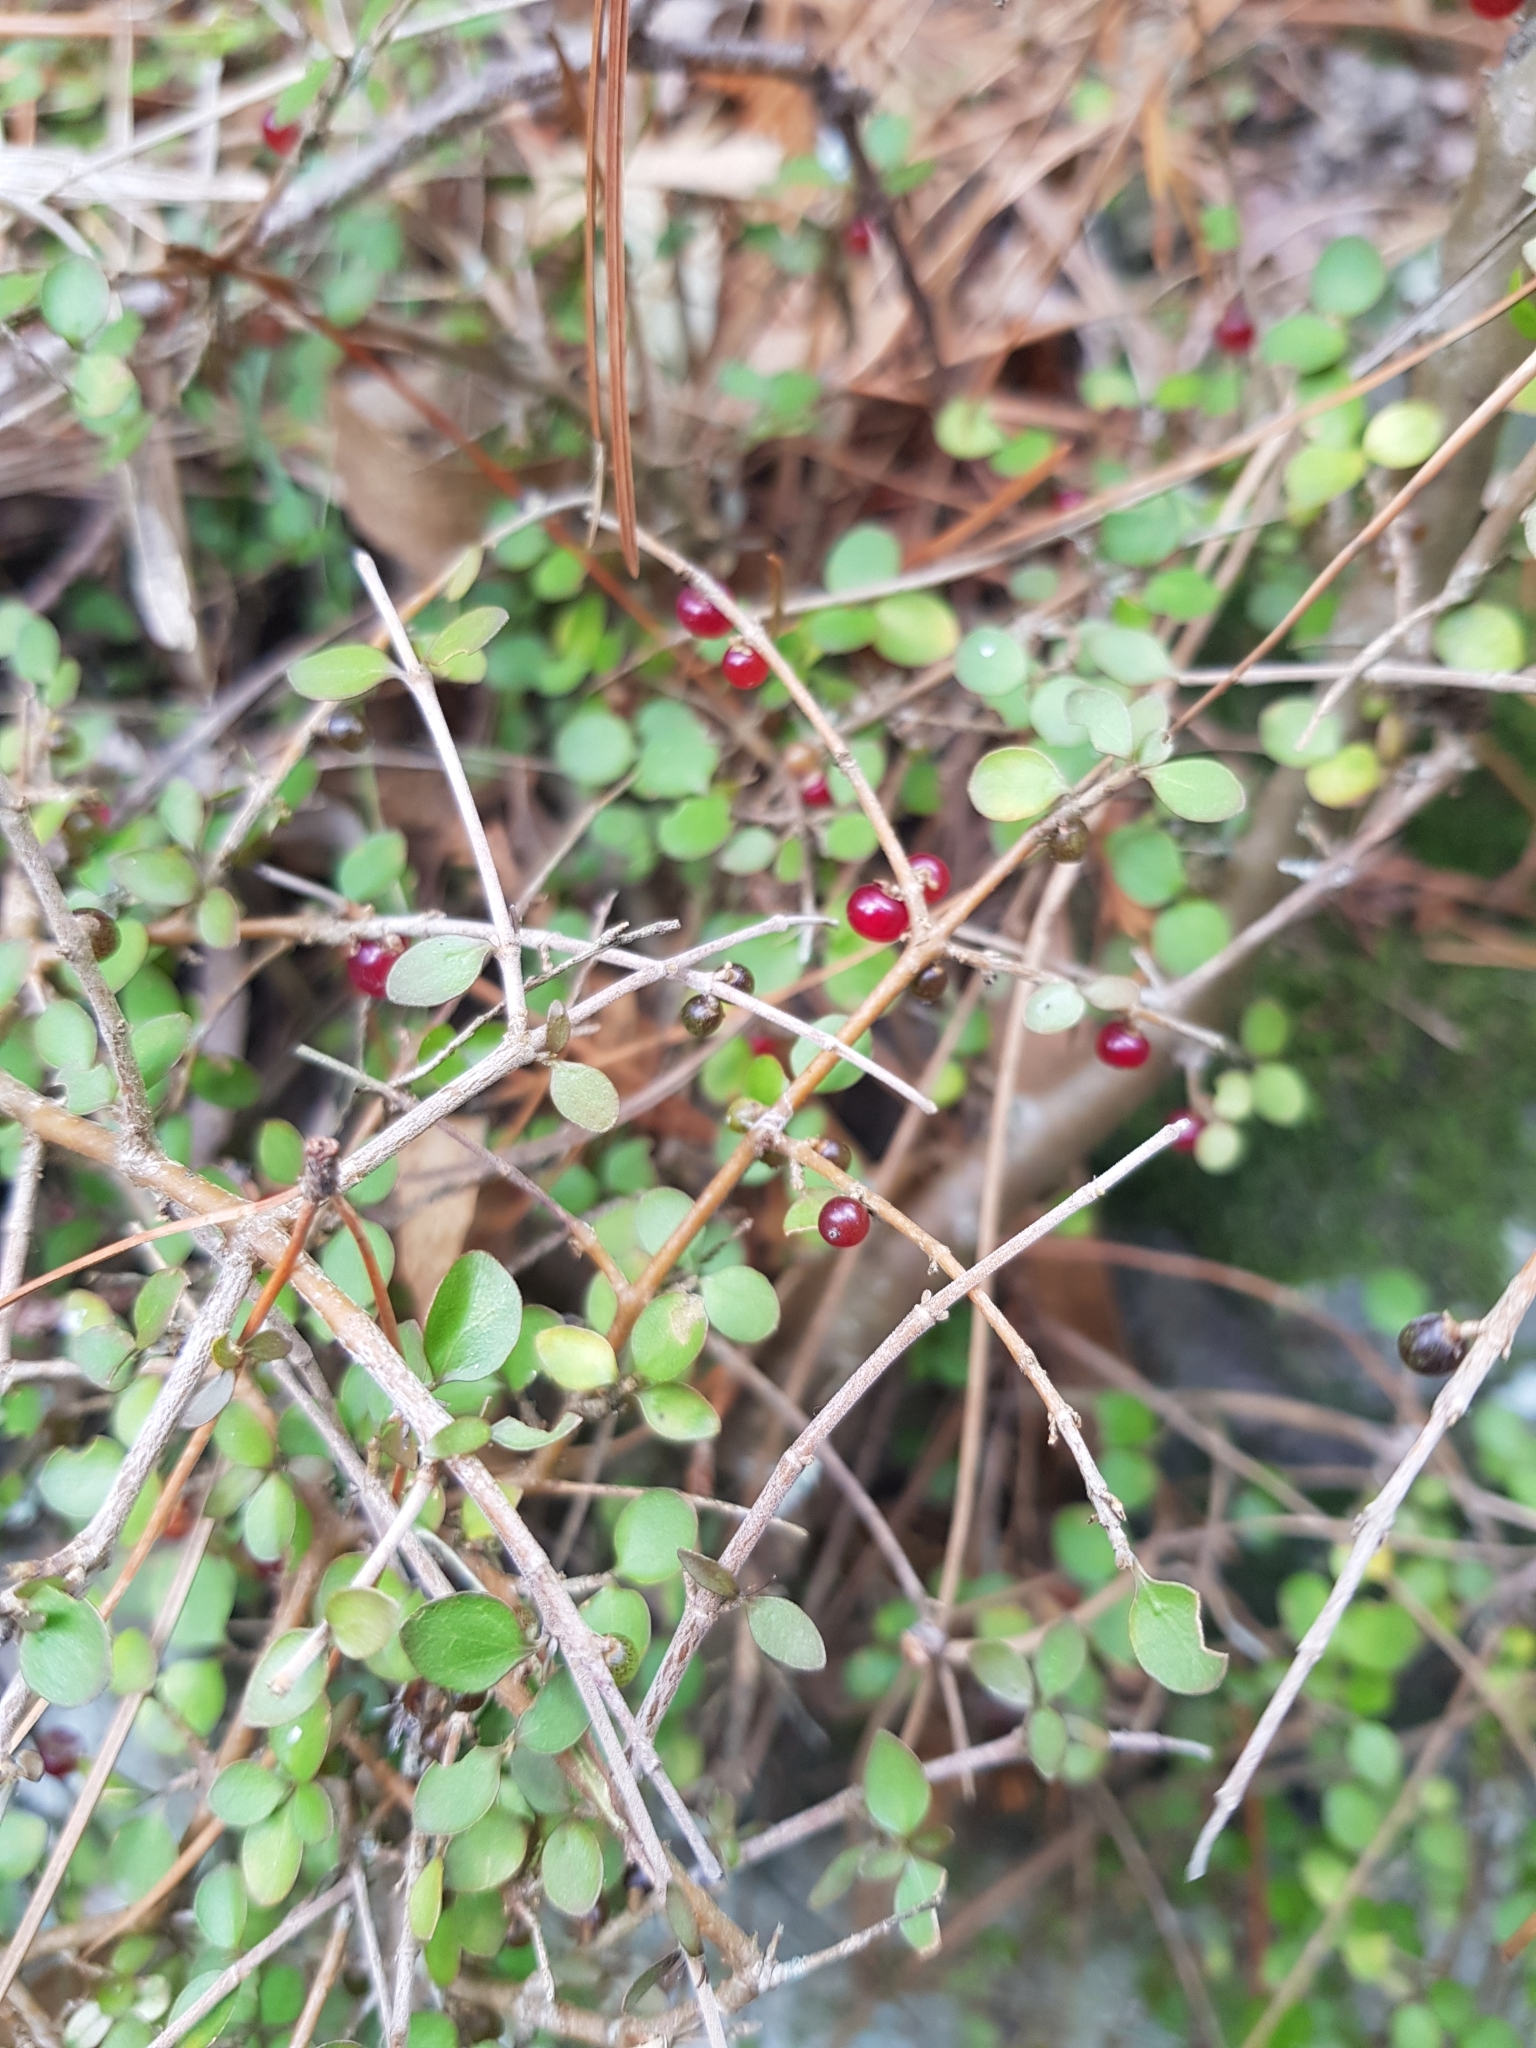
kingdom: Plantae
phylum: Tracheophyta
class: Magnoliopsida
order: Gentianales
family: Rubiaceae
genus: Coprosma
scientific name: Coprosma rhamnoides
